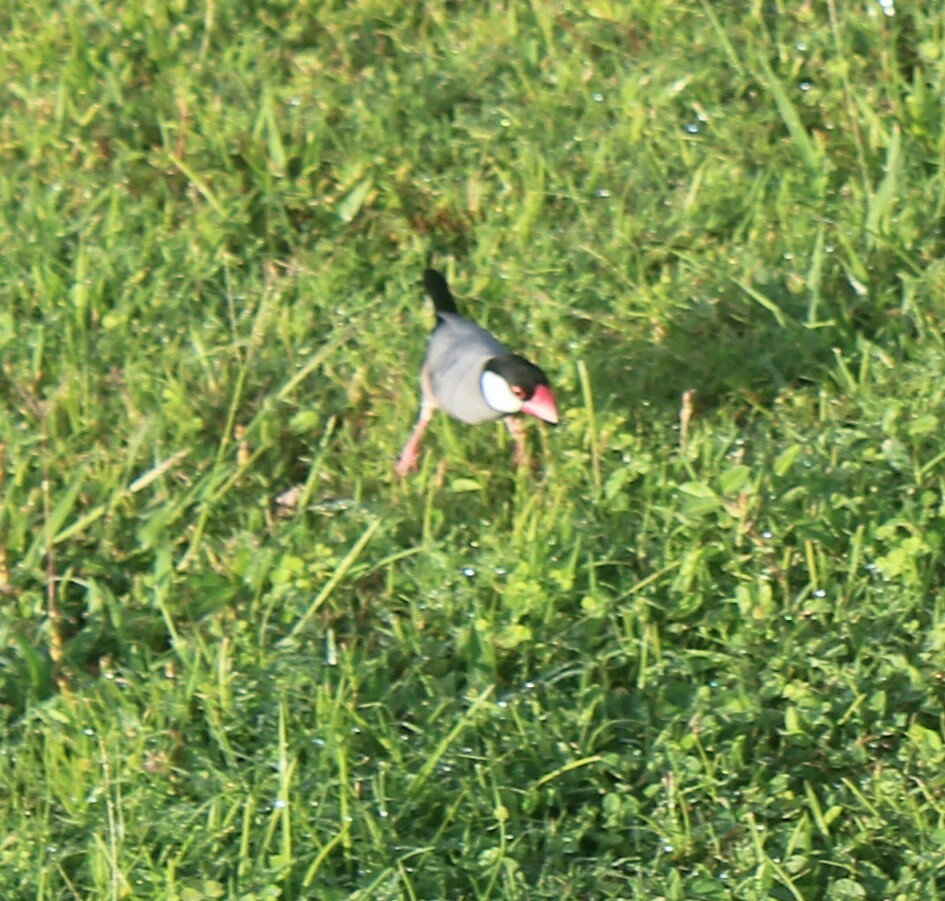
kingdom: Animalia
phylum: Chordata
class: Aves
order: Passeriformes
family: Estrildidae
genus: Lonchura
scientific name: Lonchura oryzivora
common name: Java sparrow
